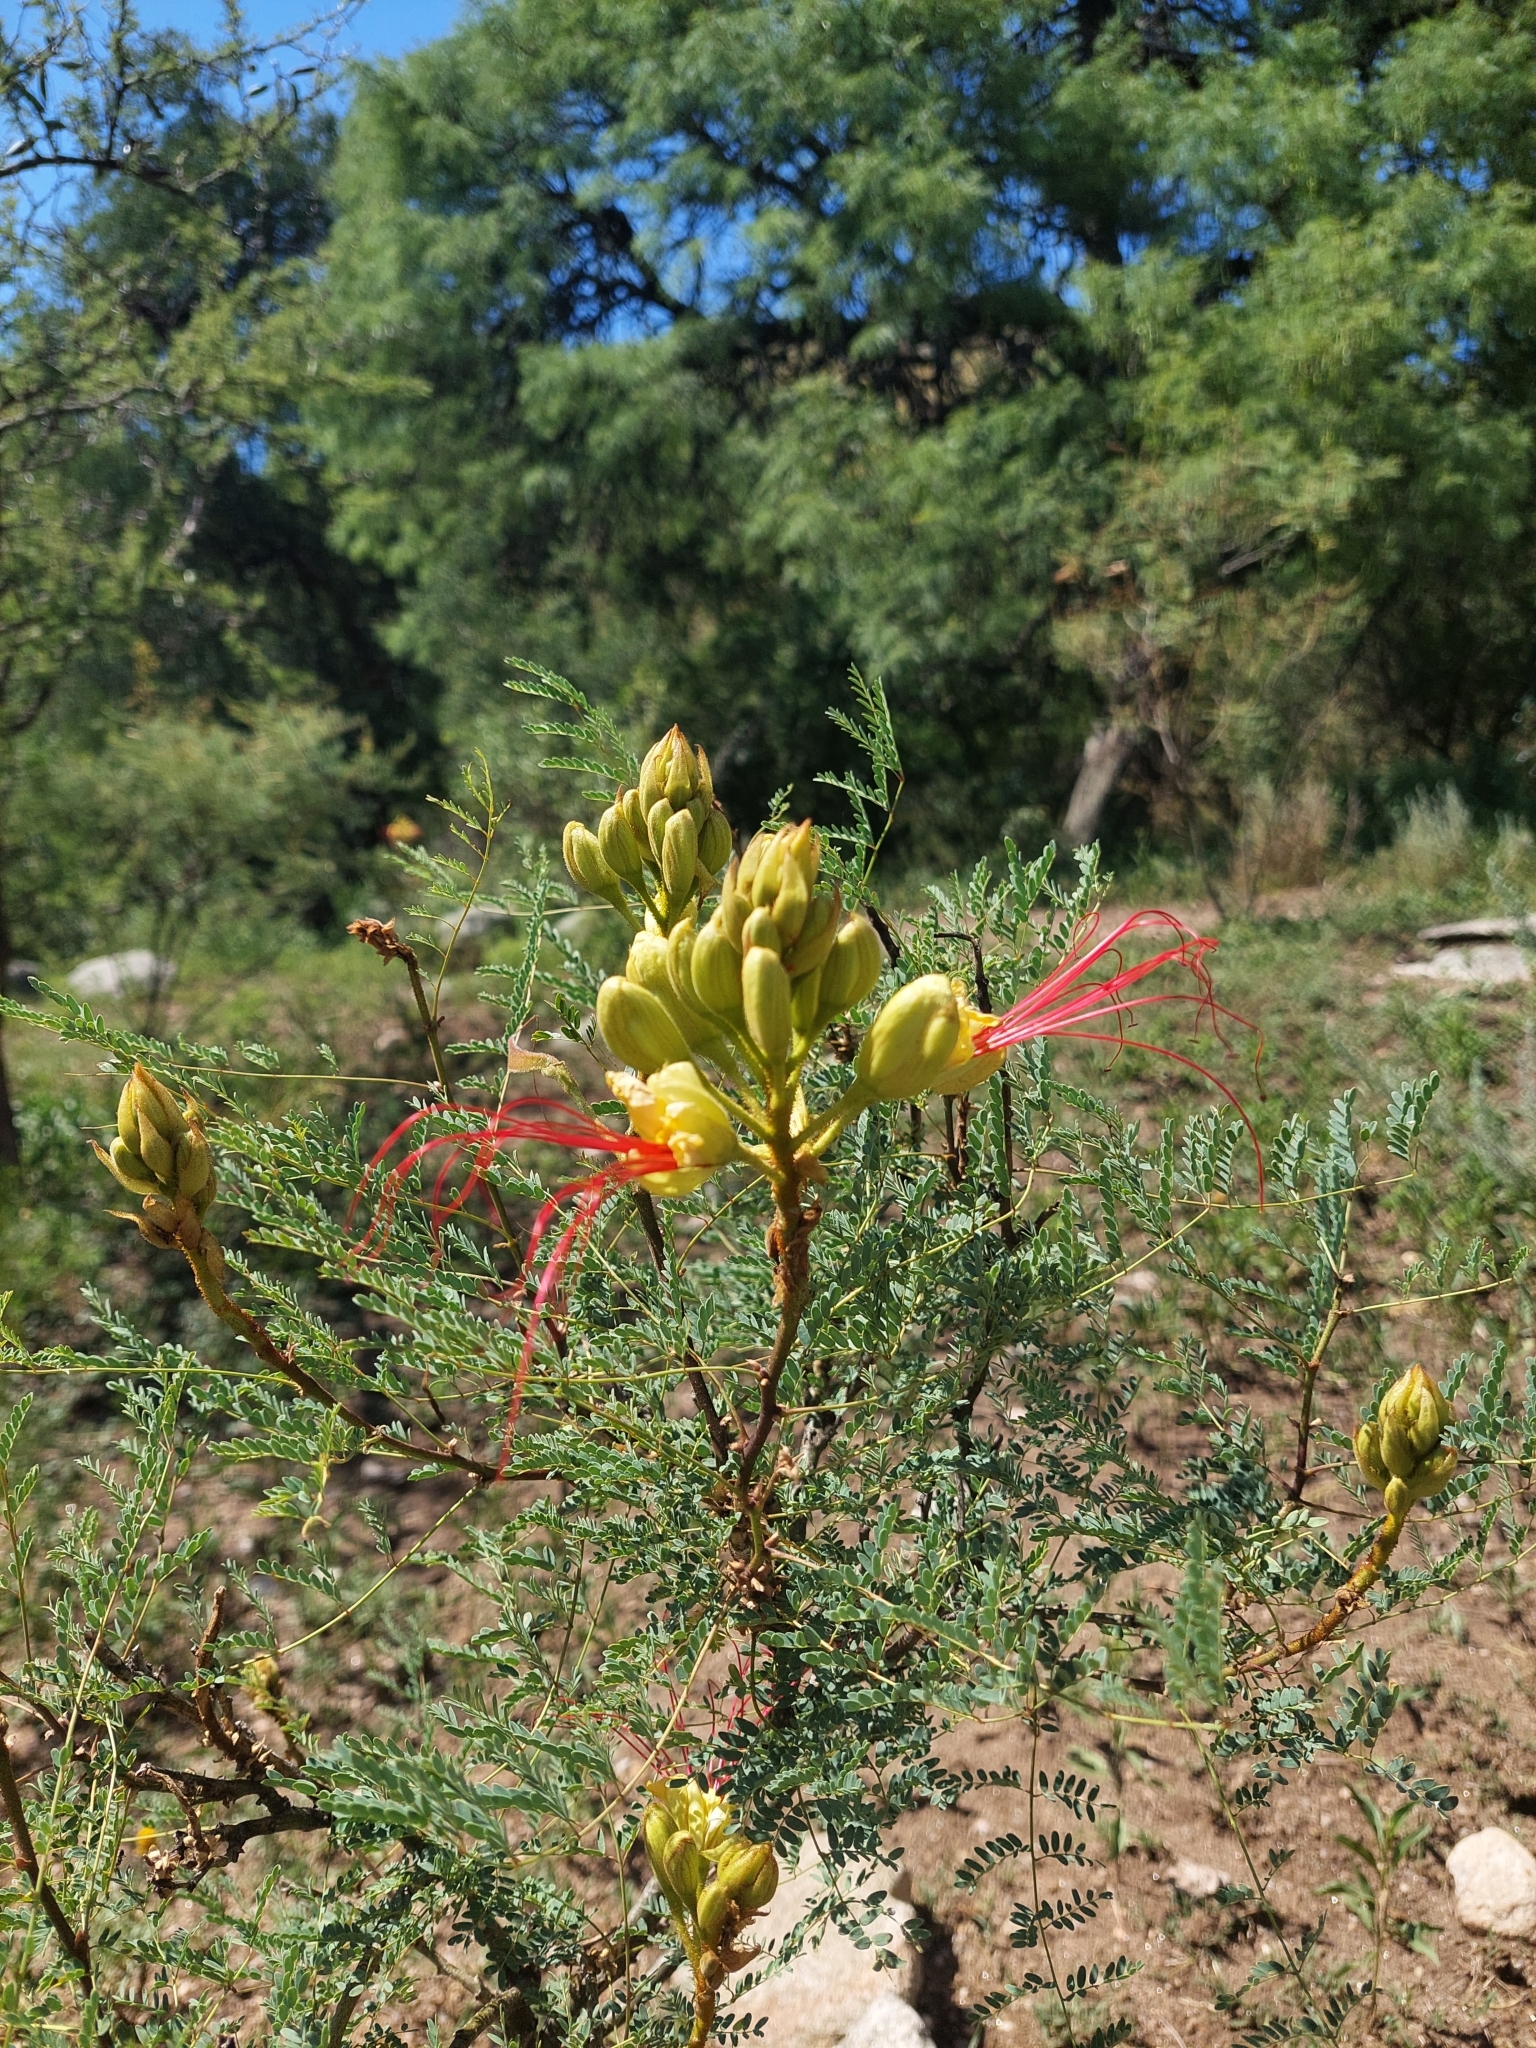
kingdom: Plantae
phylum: Tracheophyta
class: Magnoliopsida
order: Fabales
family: Fabaceae
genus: Erythrostemon
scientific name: Erythrostemon gilliesii
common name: Bird-of-paradise shrub
